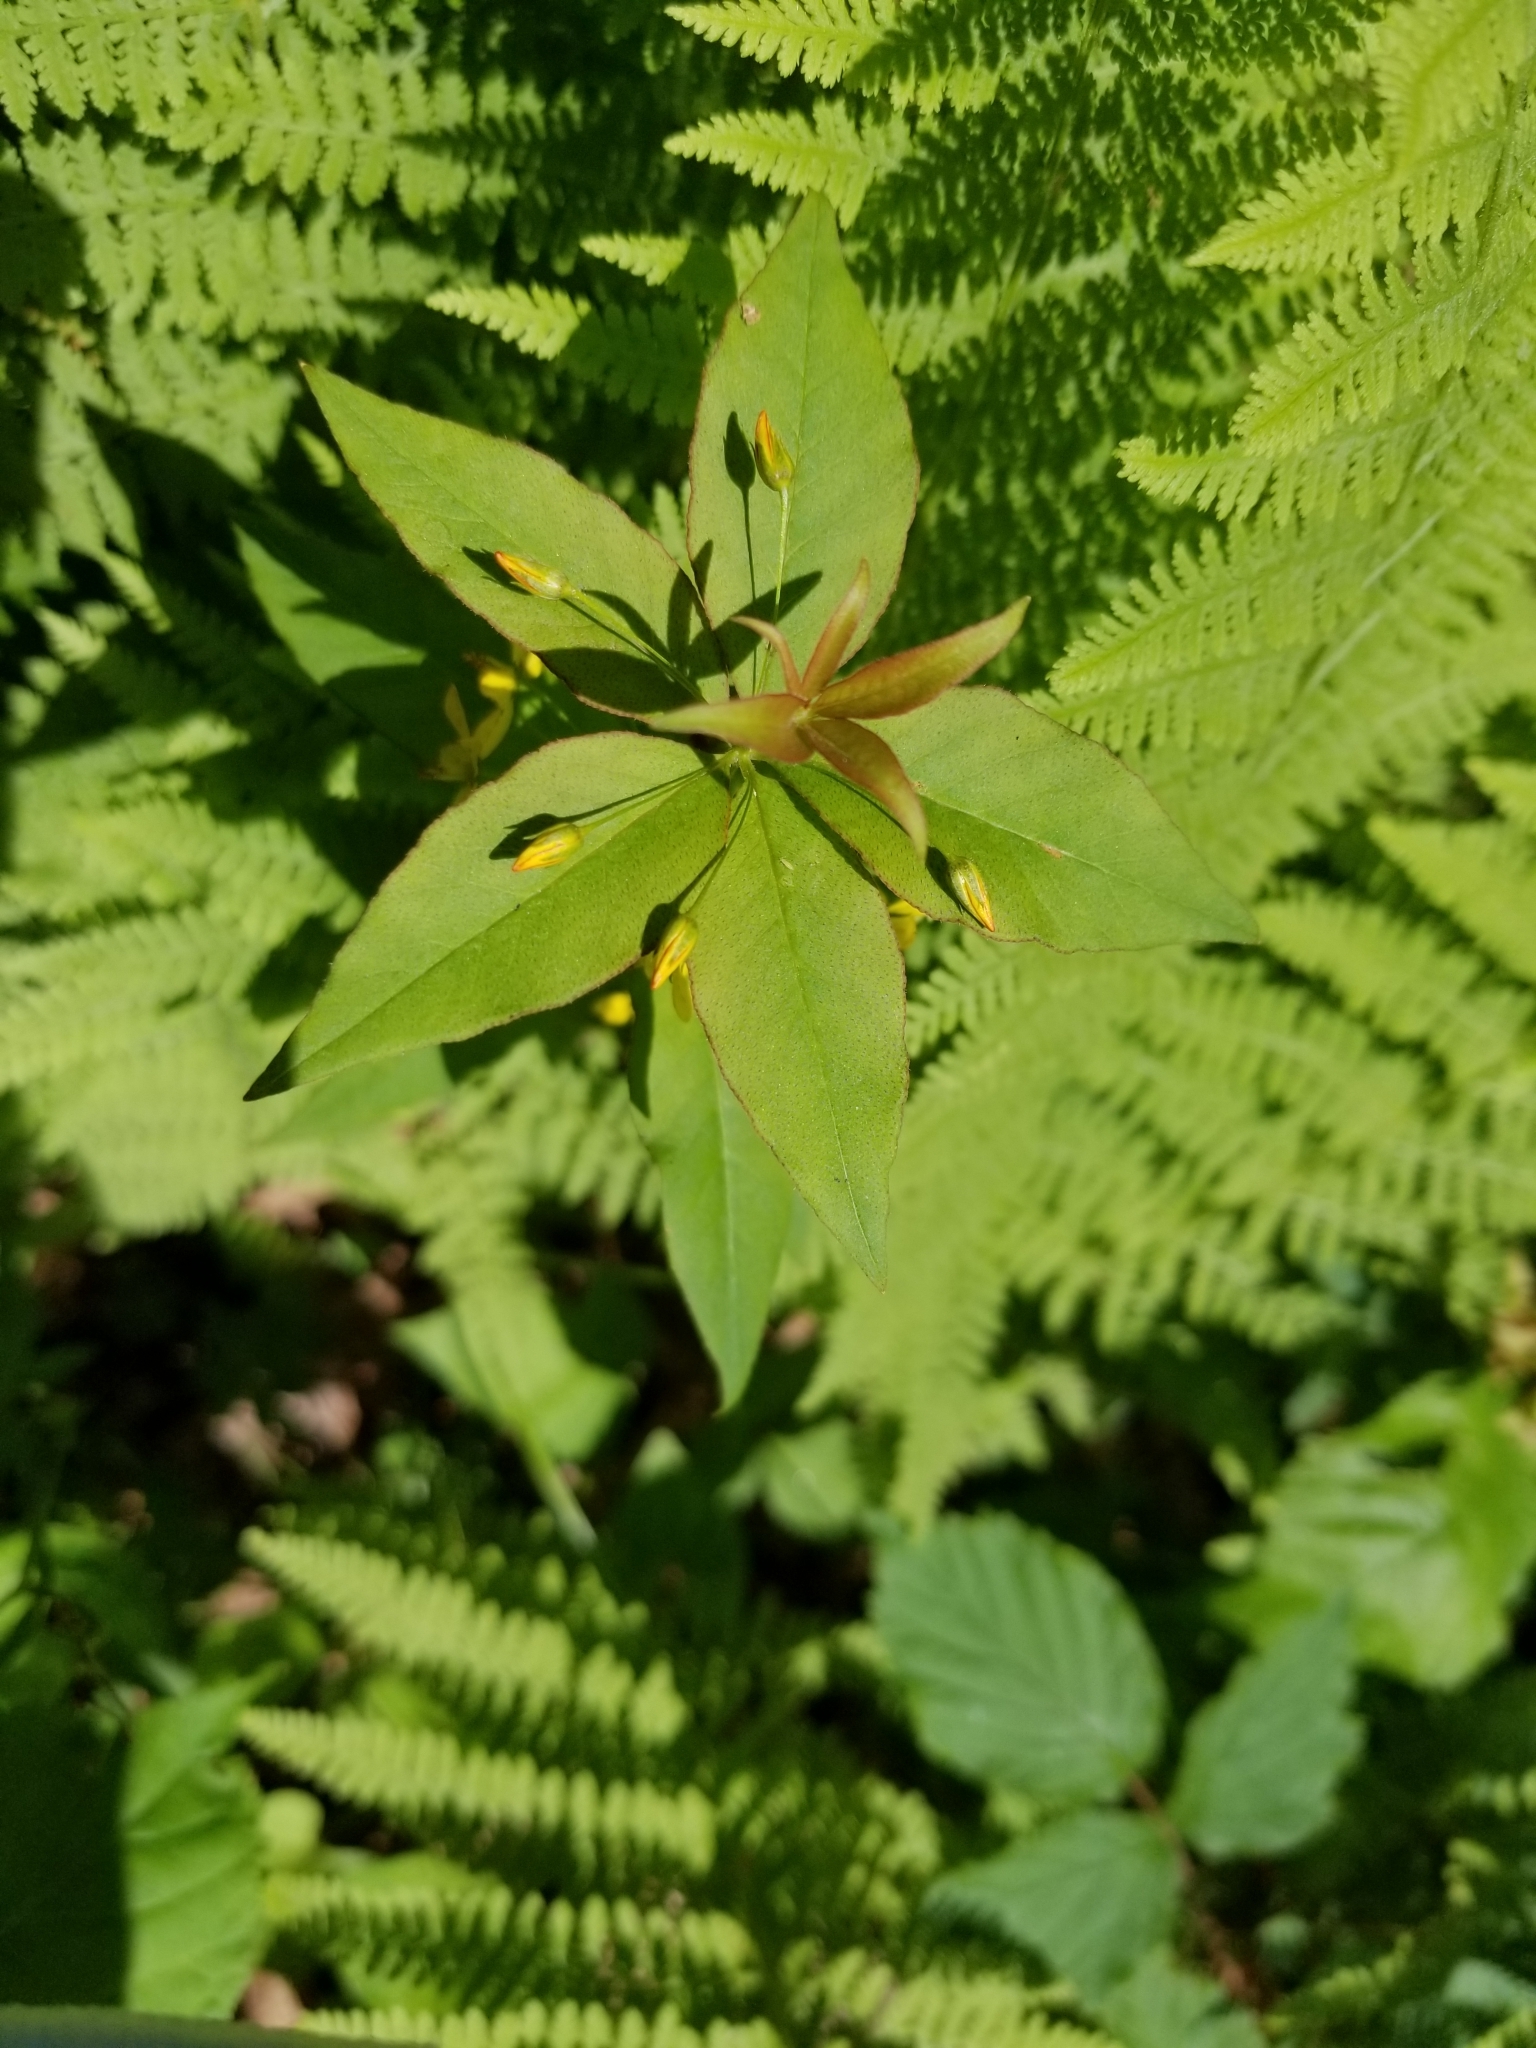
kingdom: Plantae
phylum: Tracheophyta
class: Magnoliopsida
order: Ericales
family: Primulaceae
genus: Lysimachia
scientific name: Lysimachia quadrifolia
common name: Whorled loosestrife
